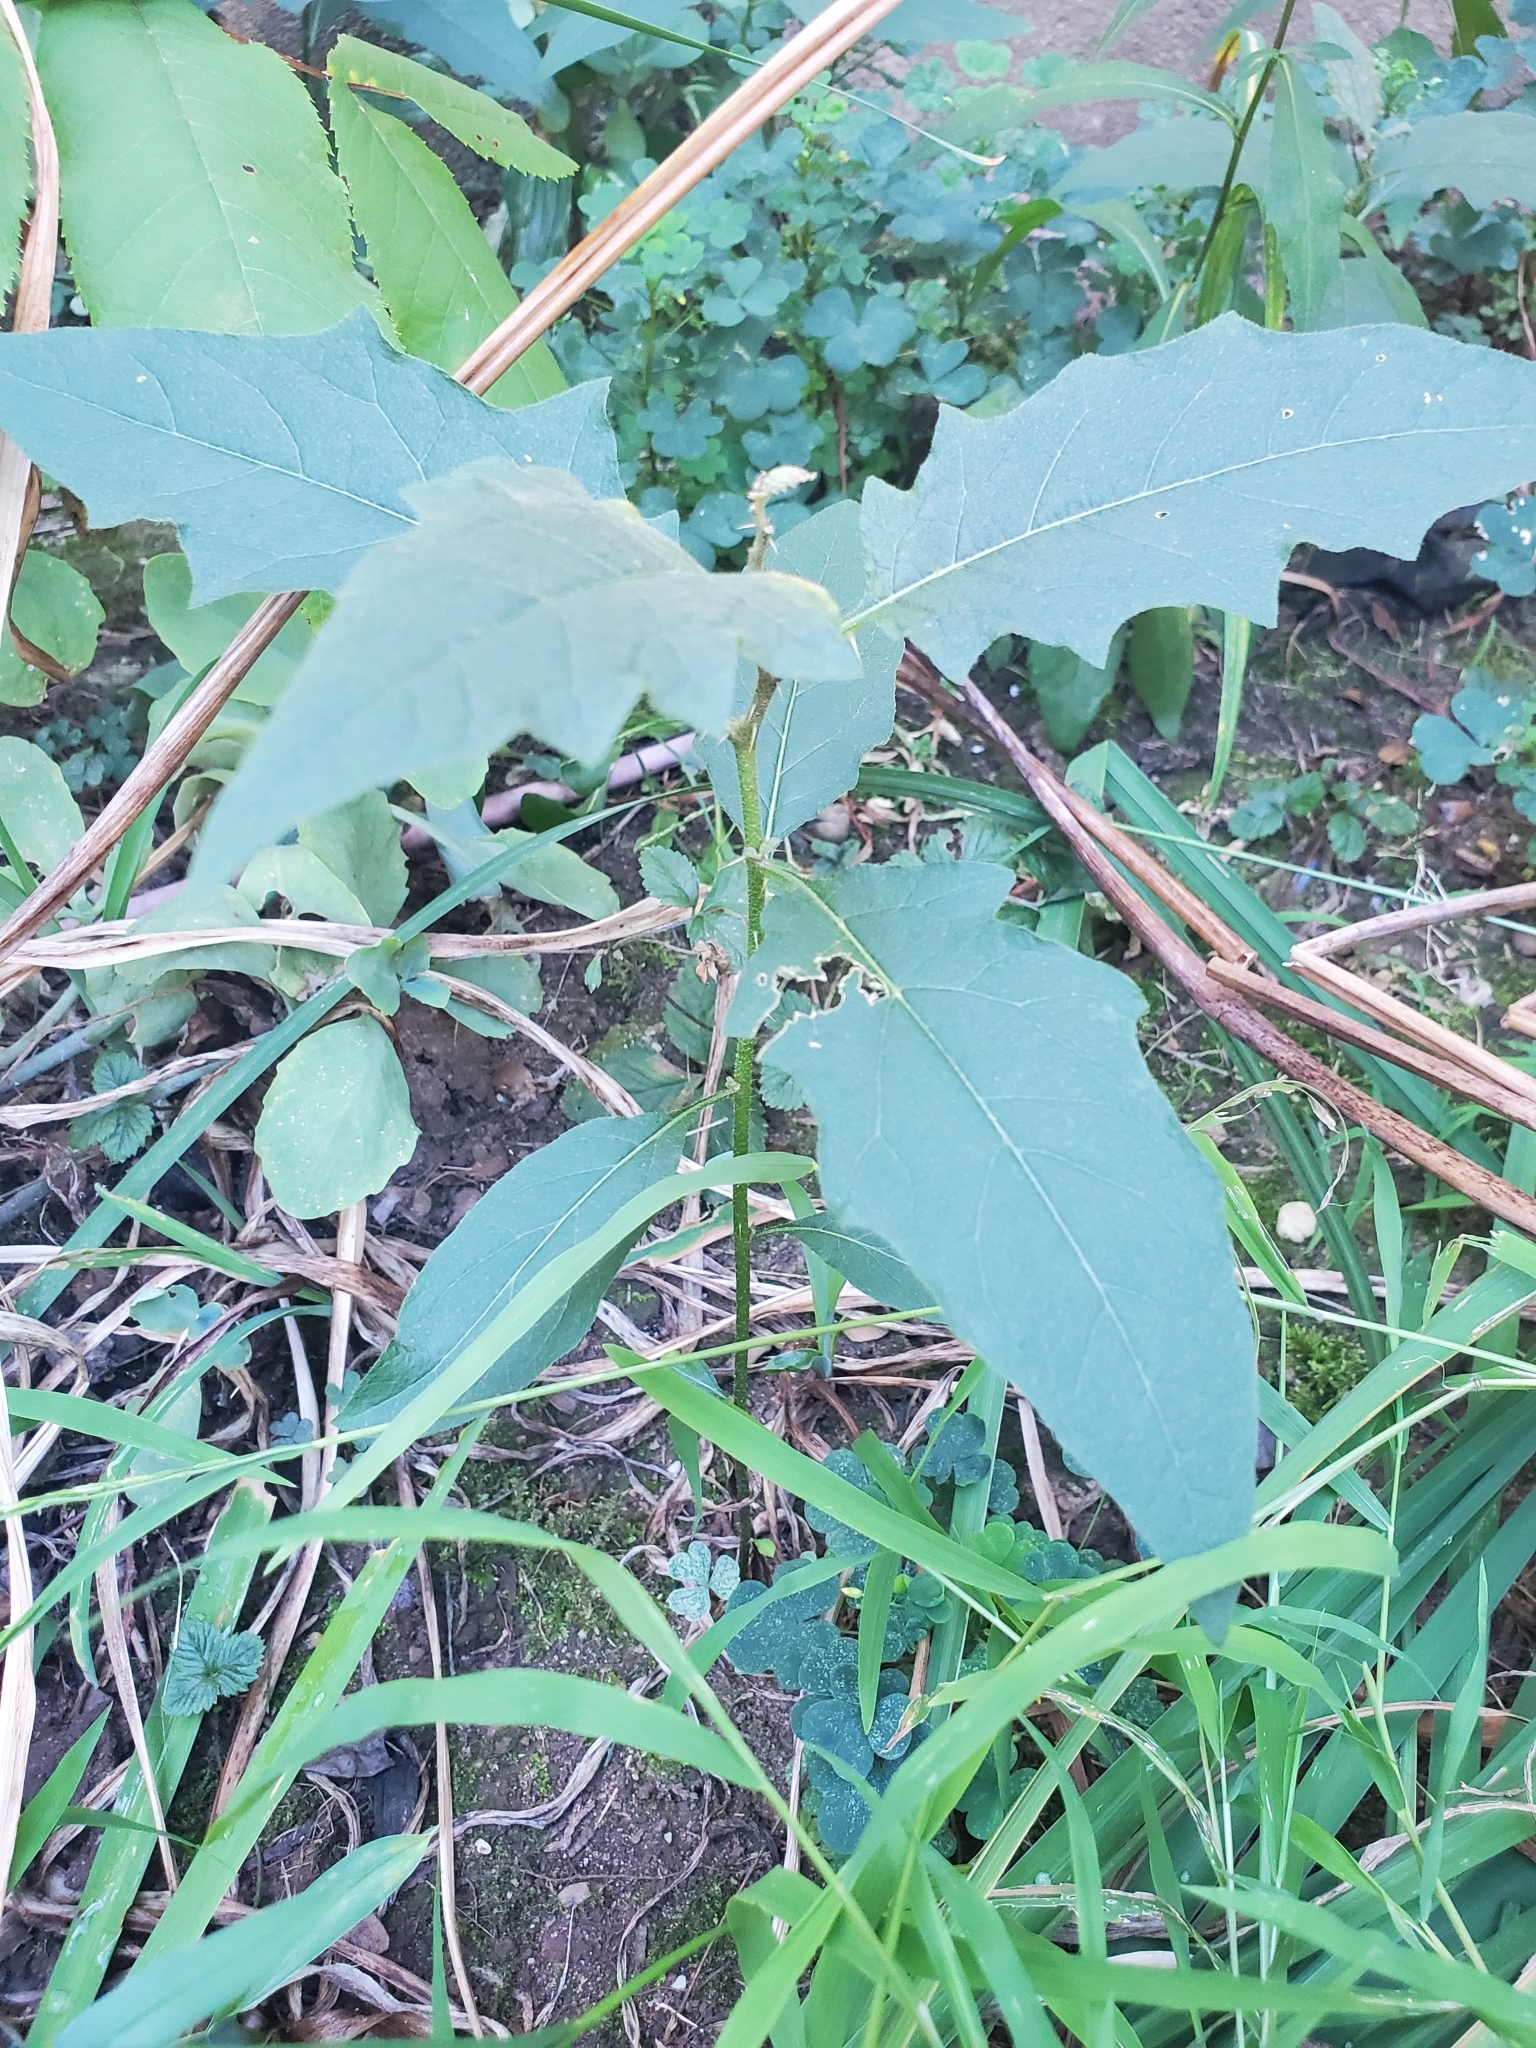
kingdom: Plantae
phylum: Tracheophyta
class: Magnoliopsida
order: Solanales
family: Solanaceae
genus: Solanum
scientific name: Solanum carolinense
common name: Horse-nettle
